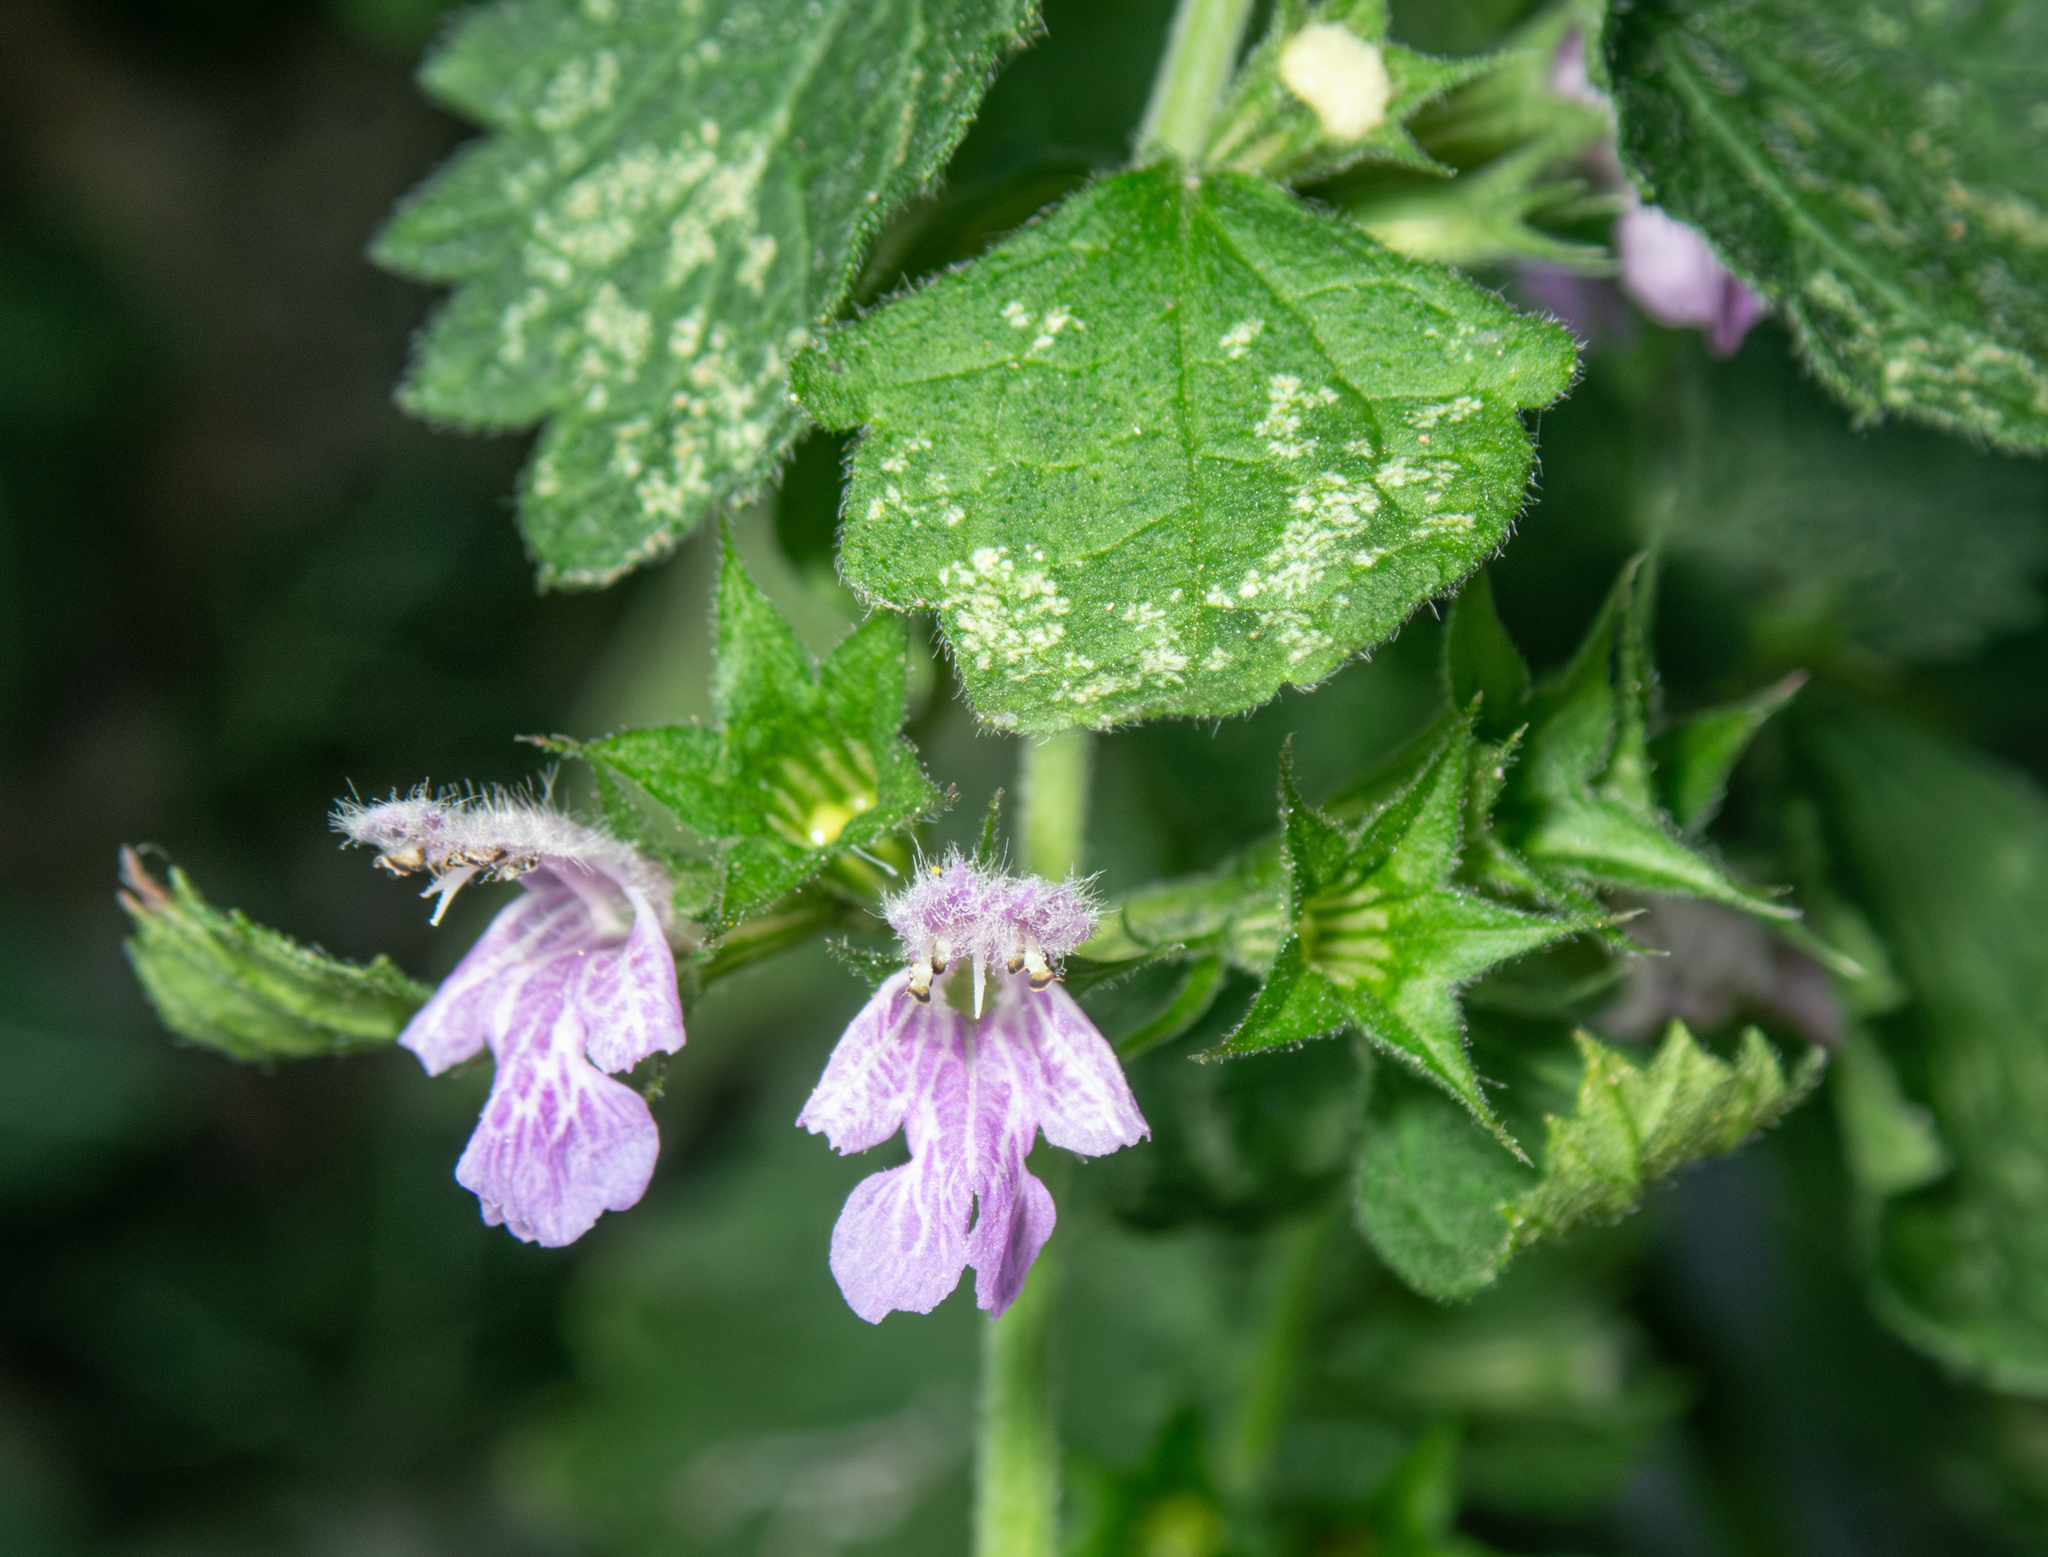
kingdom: Plantae
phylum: Tracheophyta
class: Magnoliopsida
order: Lamiales
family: Lamiaceae
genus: Ballota
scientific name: Ballota nigra
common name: Black horehound
